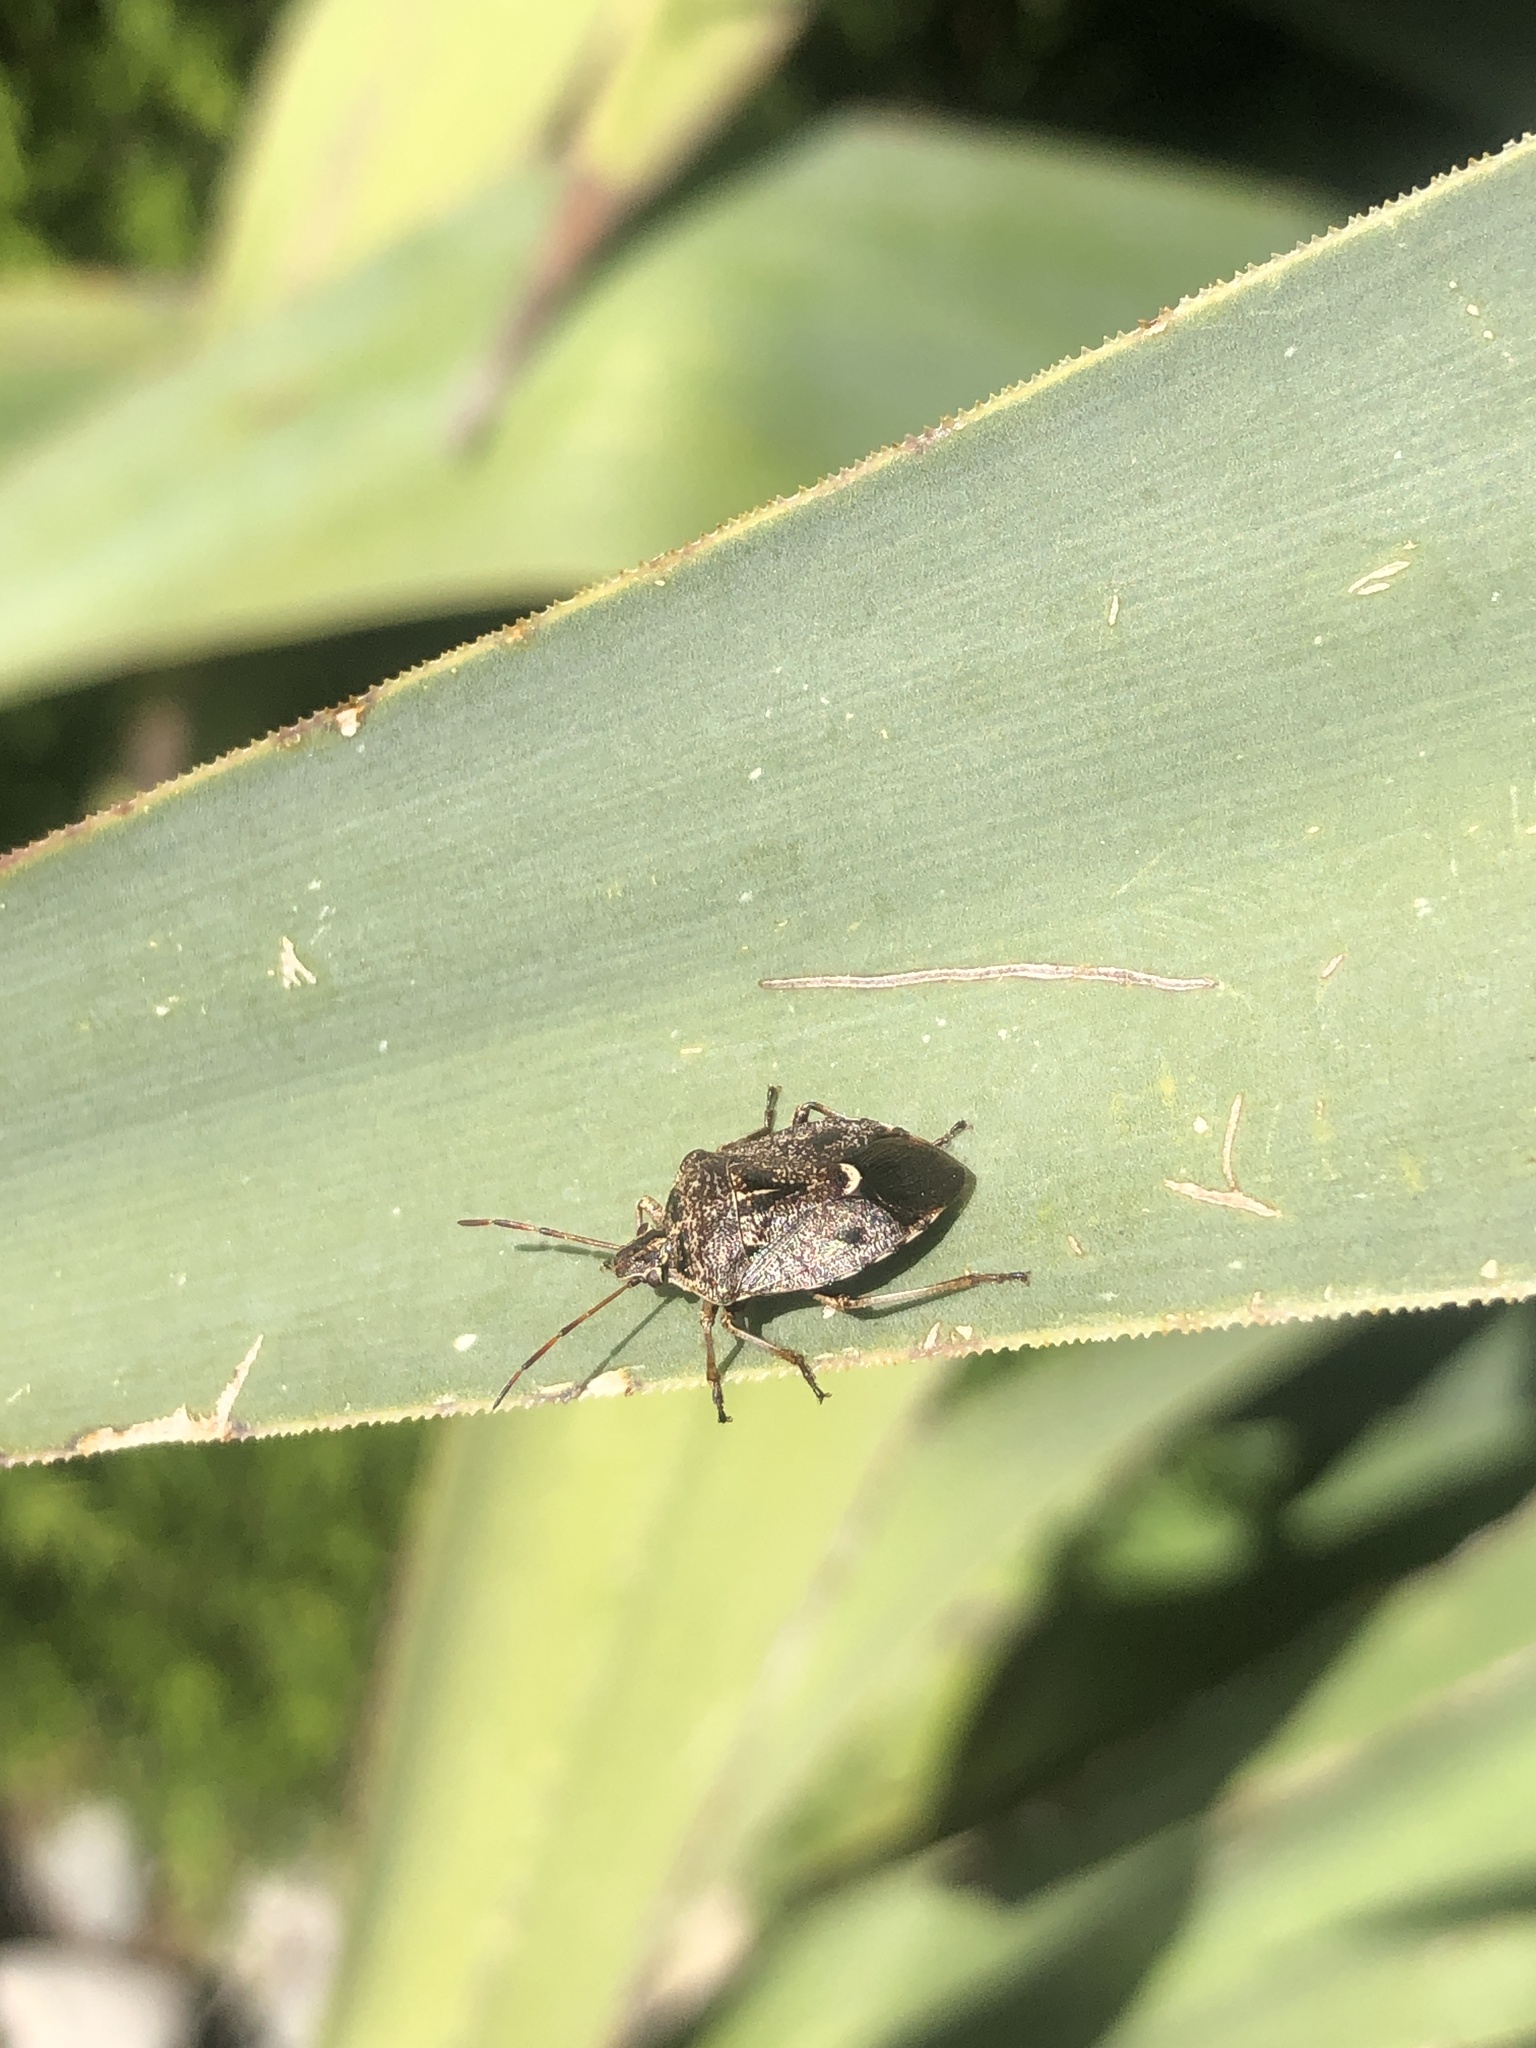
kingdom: Animalia
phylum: Arthropoda
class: Insecta
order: Hemiptera
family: Pentatomidae
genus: Cermatulus
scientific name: Cermatulus nasalis
